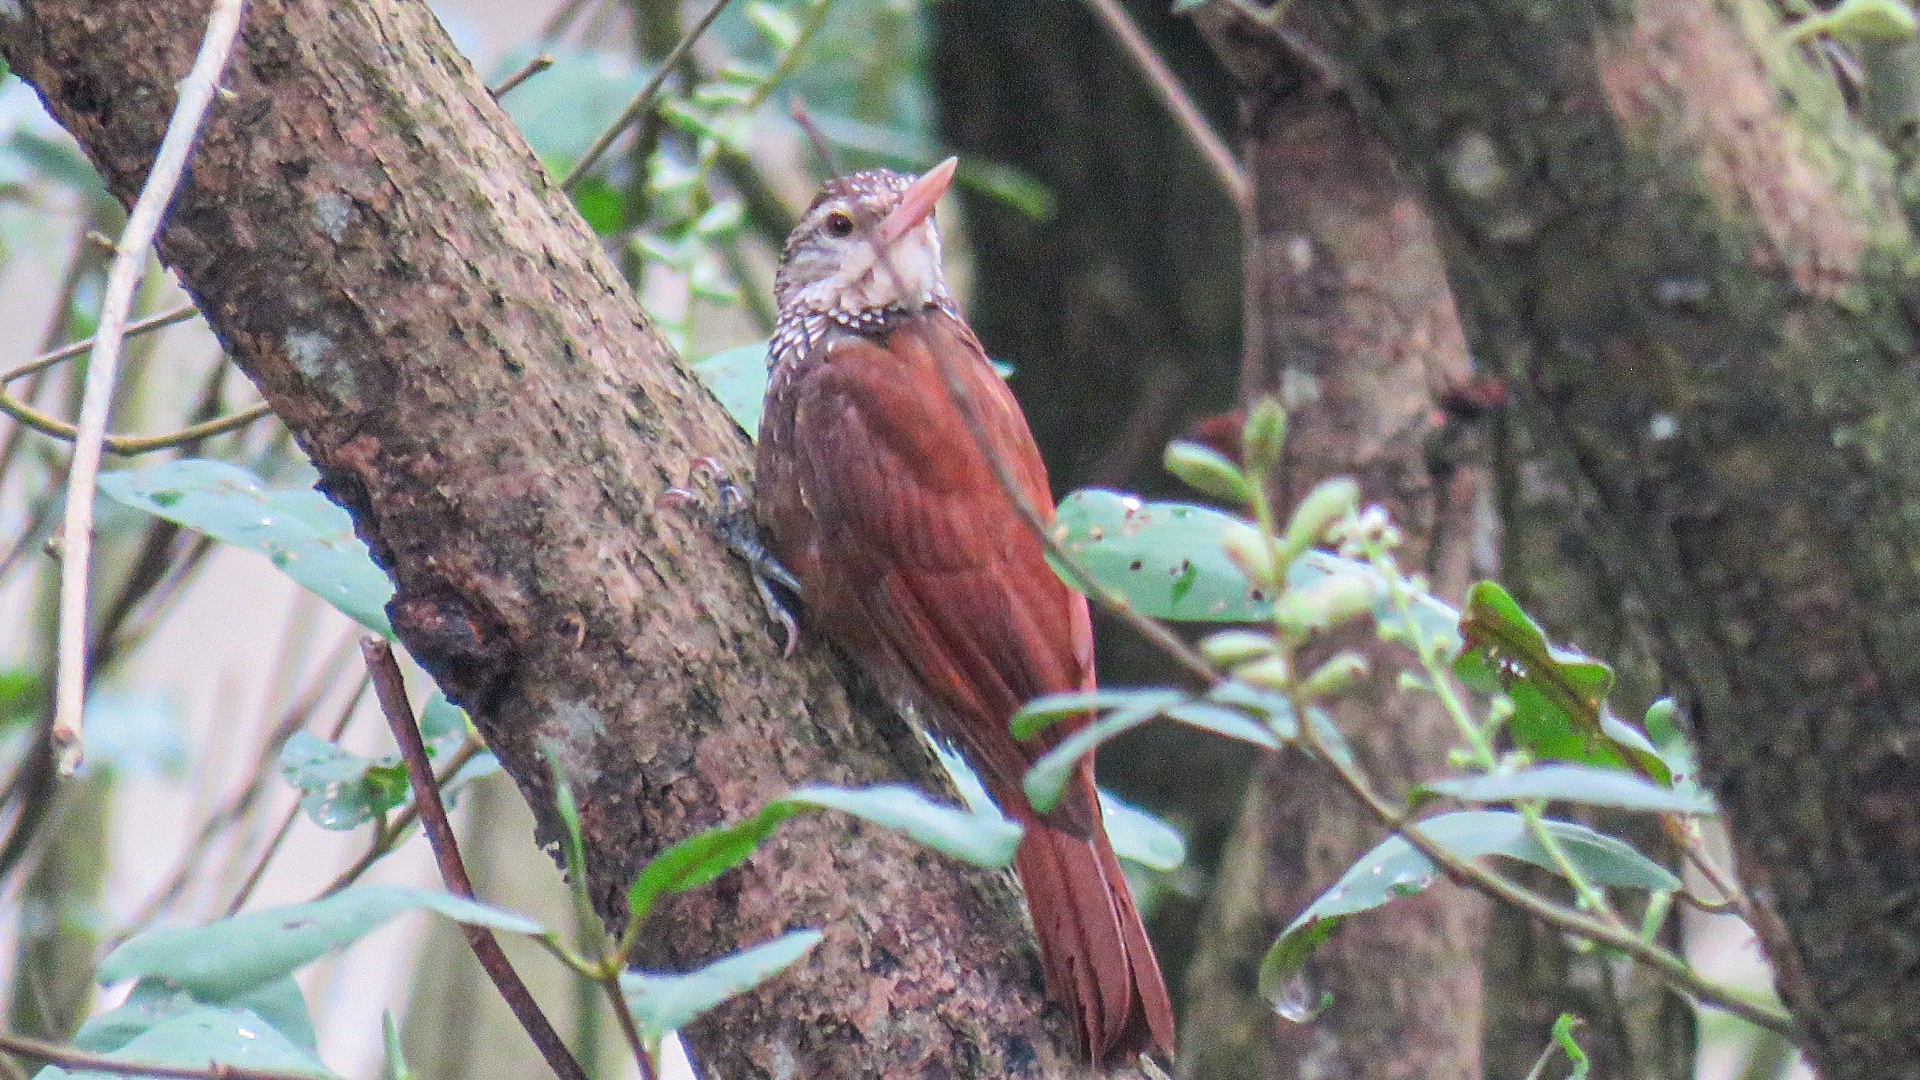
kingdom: Animalia
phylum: Chordata
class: Aves
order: Passeriformes
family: Furnariidae
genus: Xiphorhynchus
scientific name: Xiphorhynchus picus
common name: Straight-billed woodcreeper
